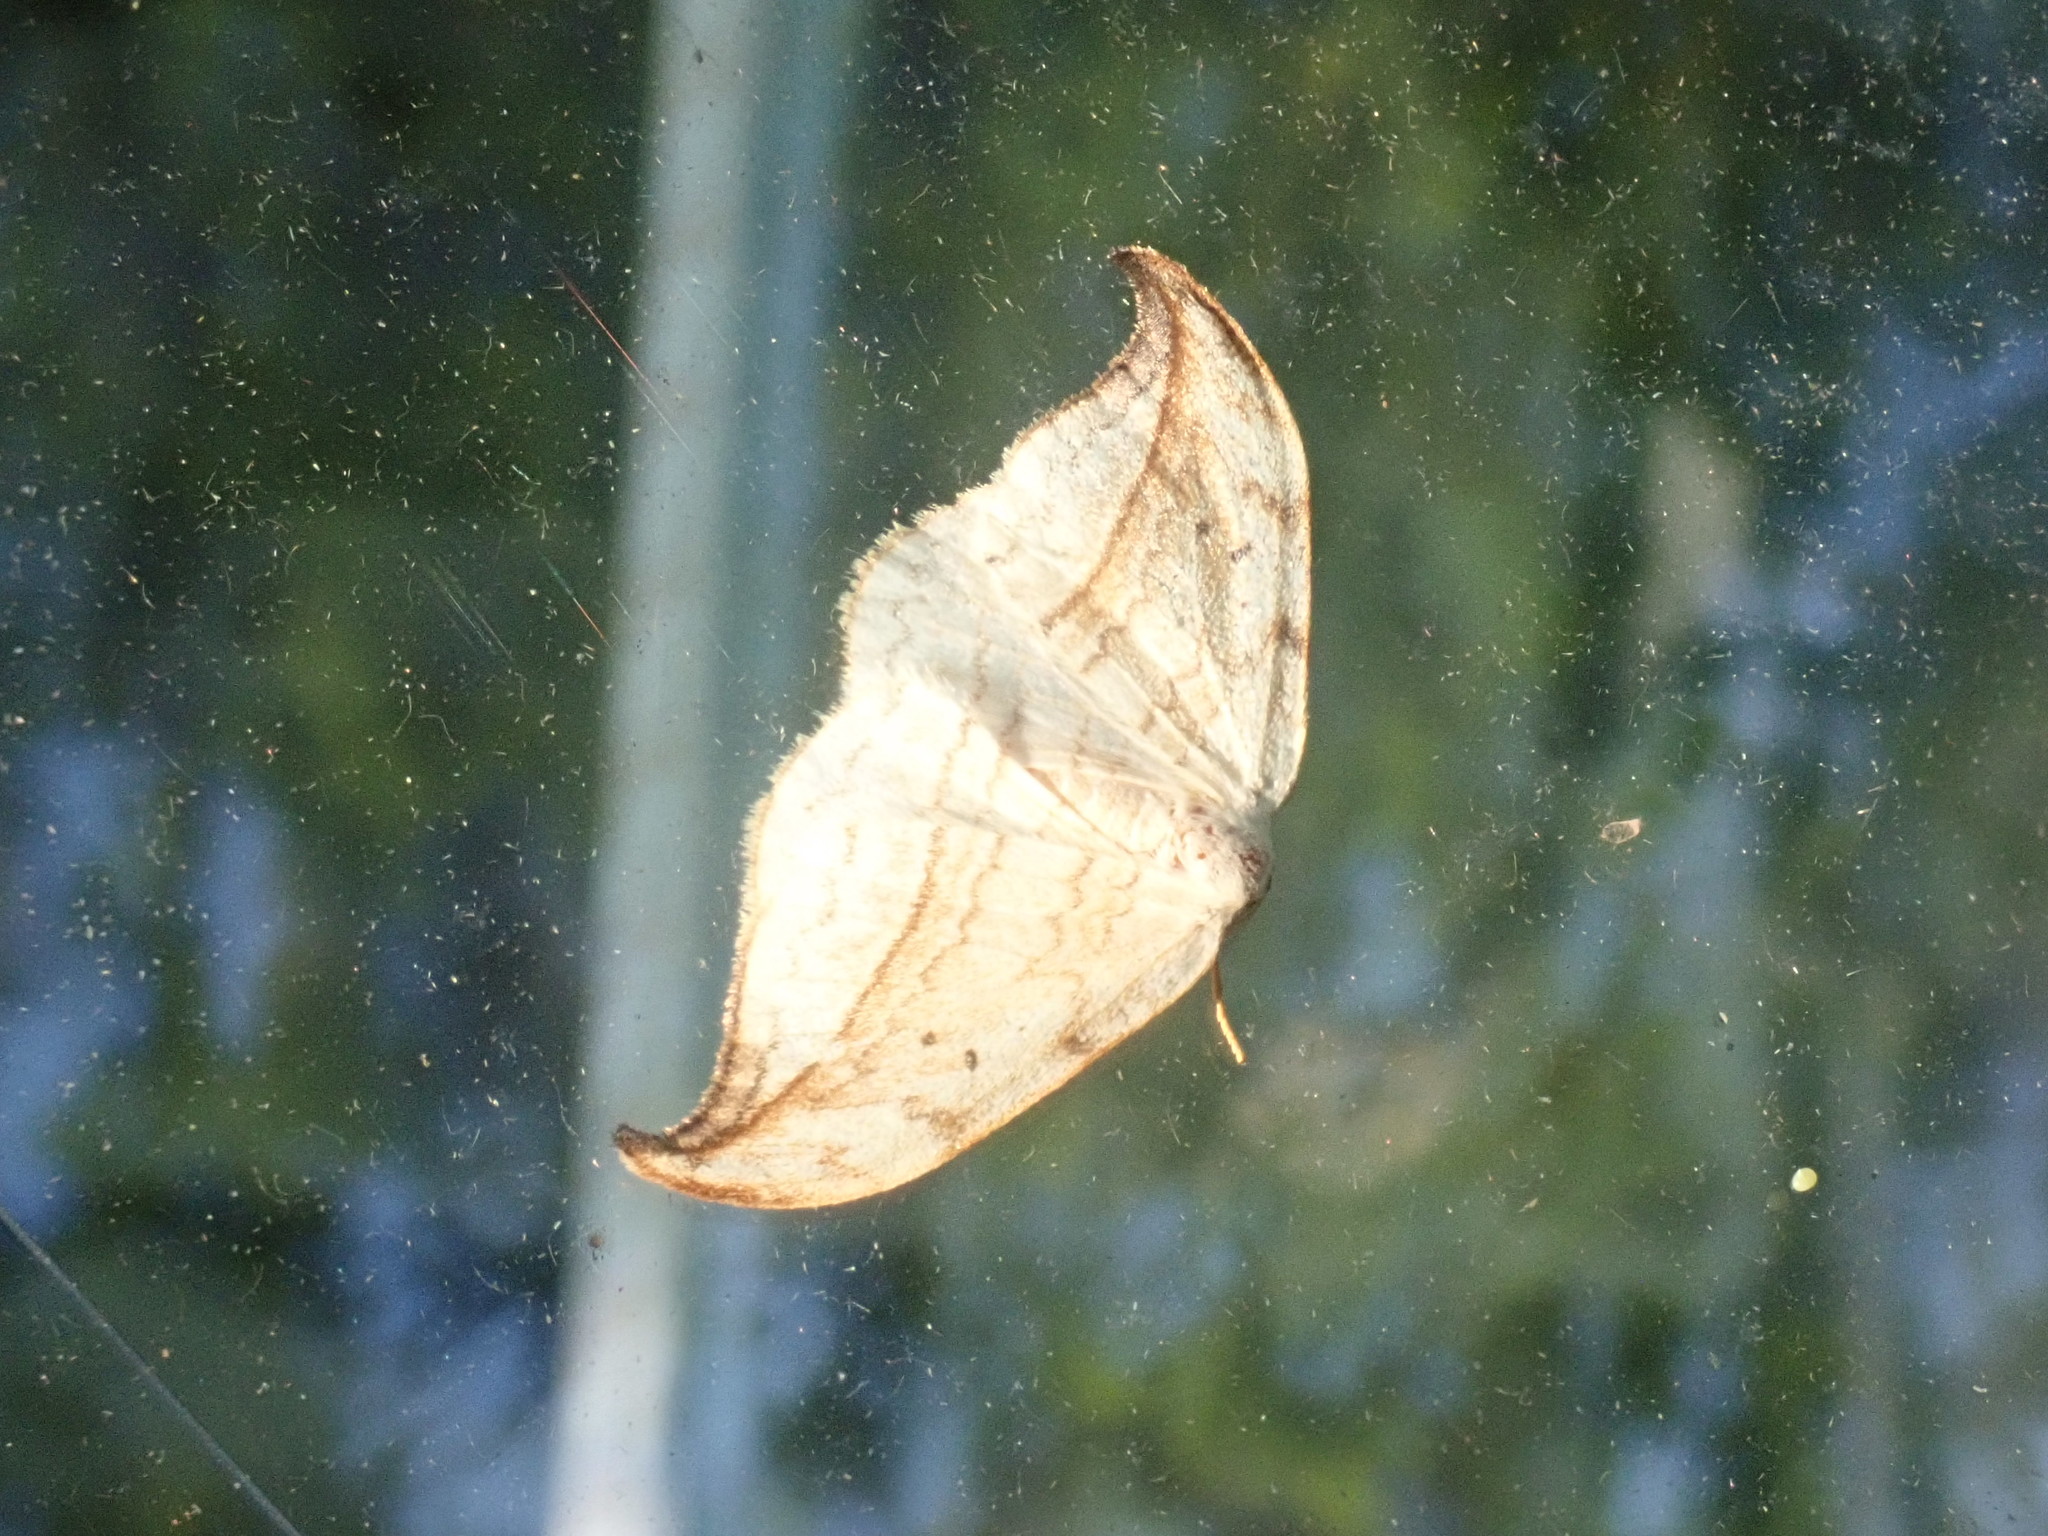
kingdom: Animalia
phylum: Arthropoda
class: Insecta
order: Lepidoptera
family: Drepanidae
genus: Drepana
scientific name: Drepana arcuata
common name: Arched hooktip moth
